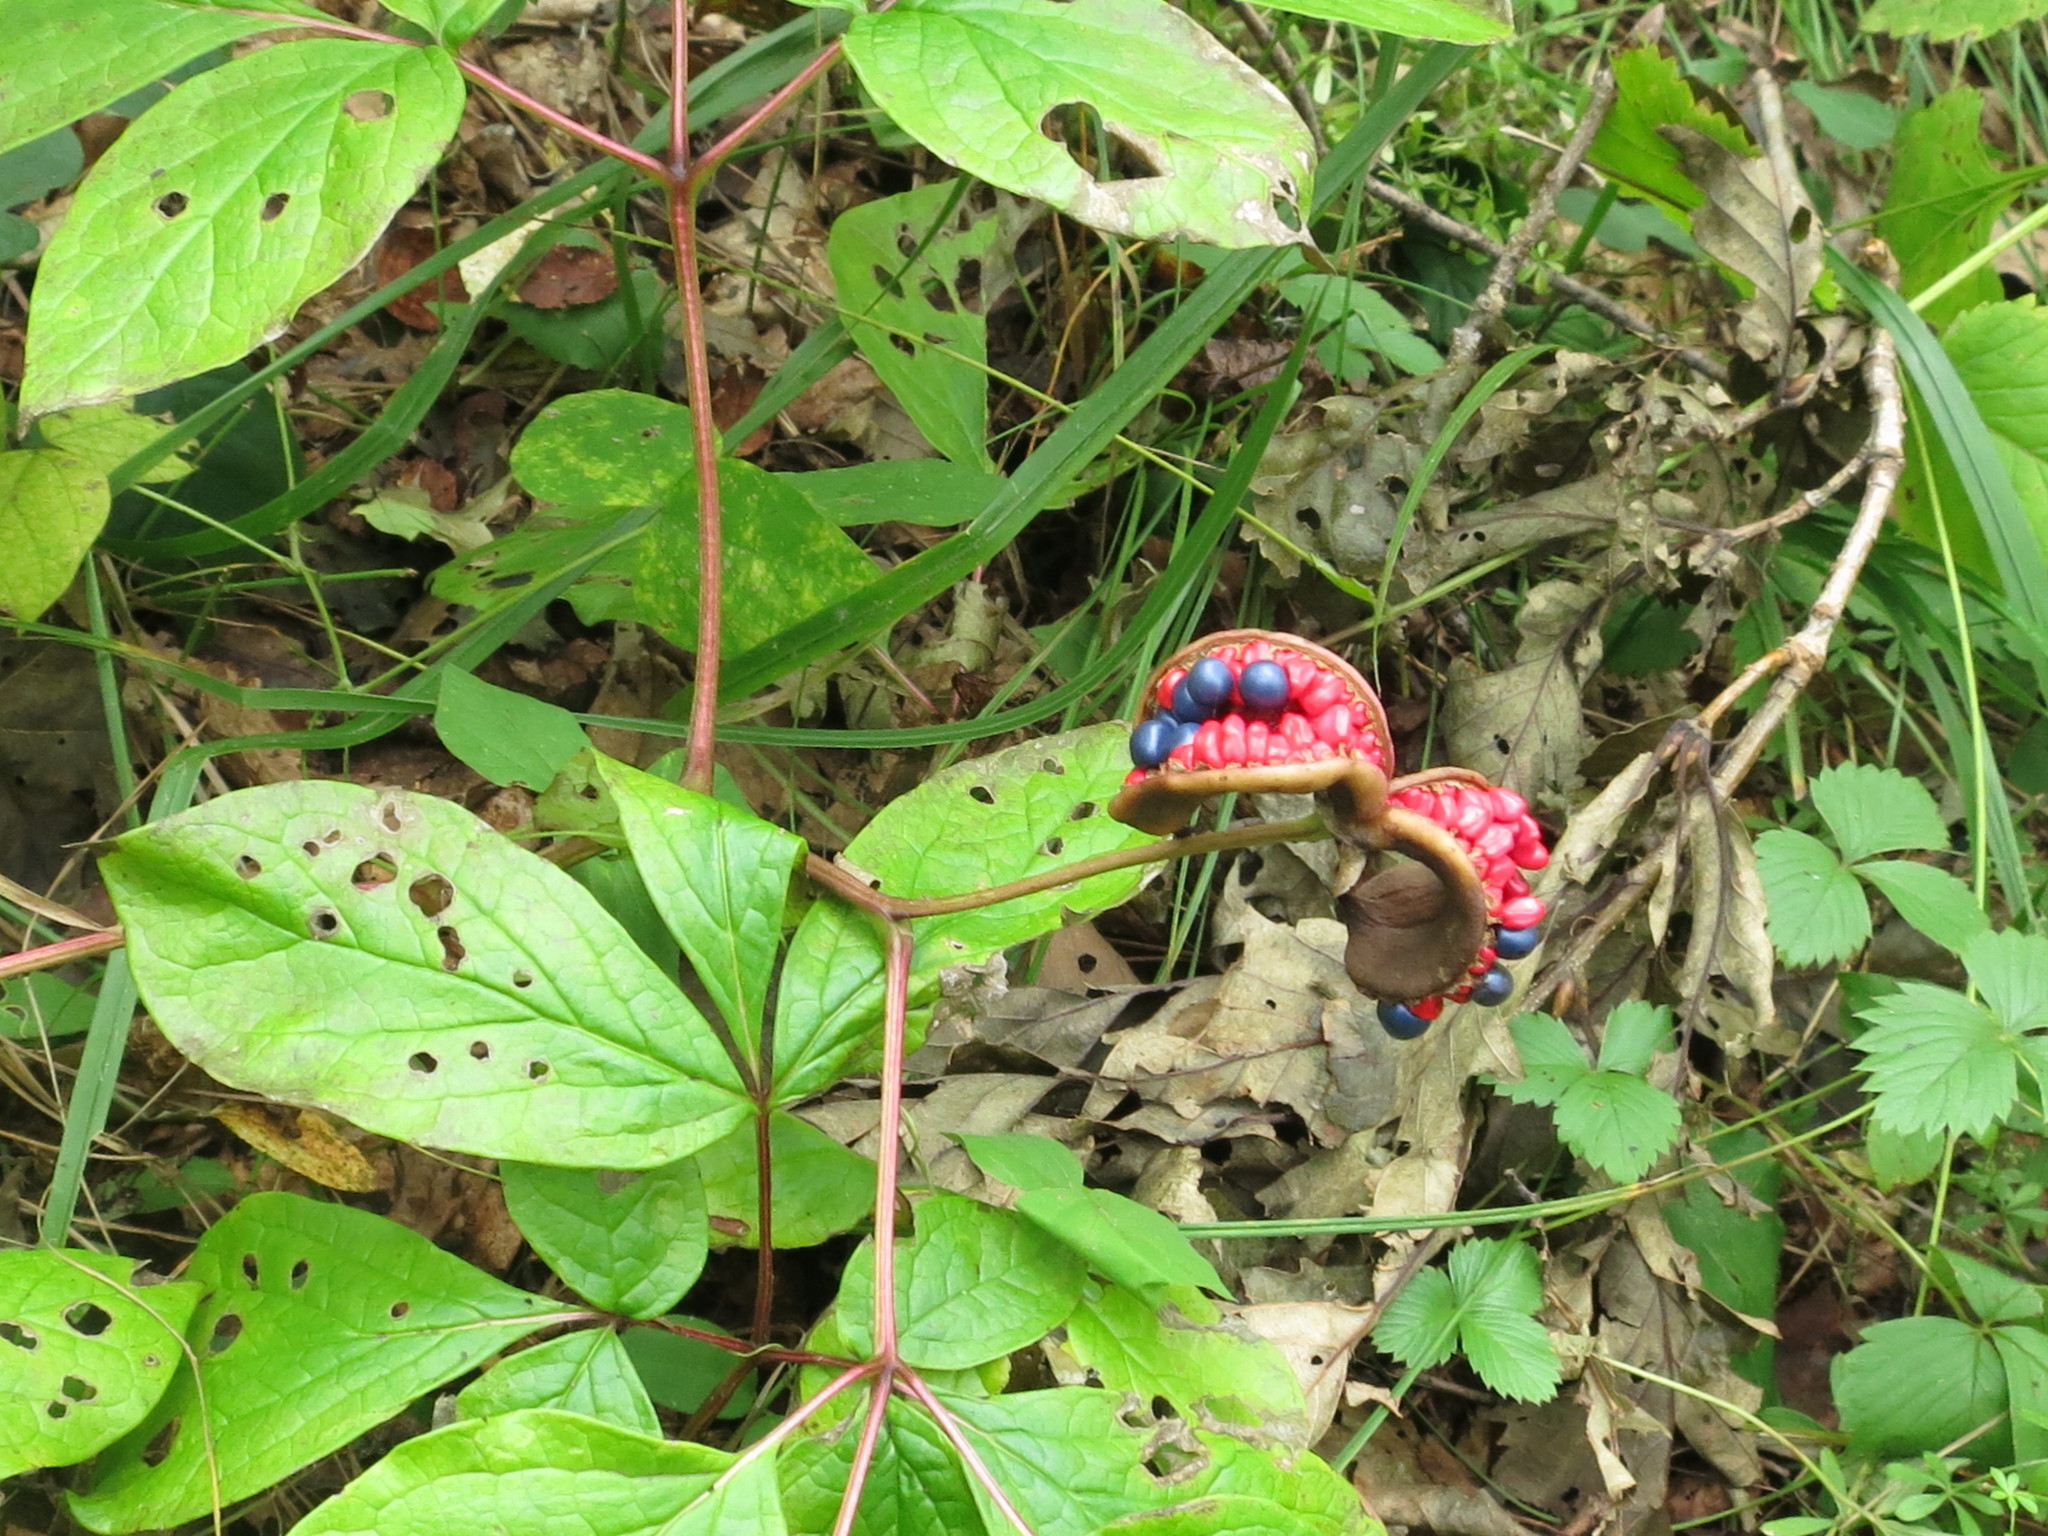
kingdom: Plantae
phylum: Tracheophyta
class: Magnoliopsida
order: Saxifragales
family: Paeoniaceae
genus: Paeonia
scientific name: Paeonia obovata
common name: Chinese peony
